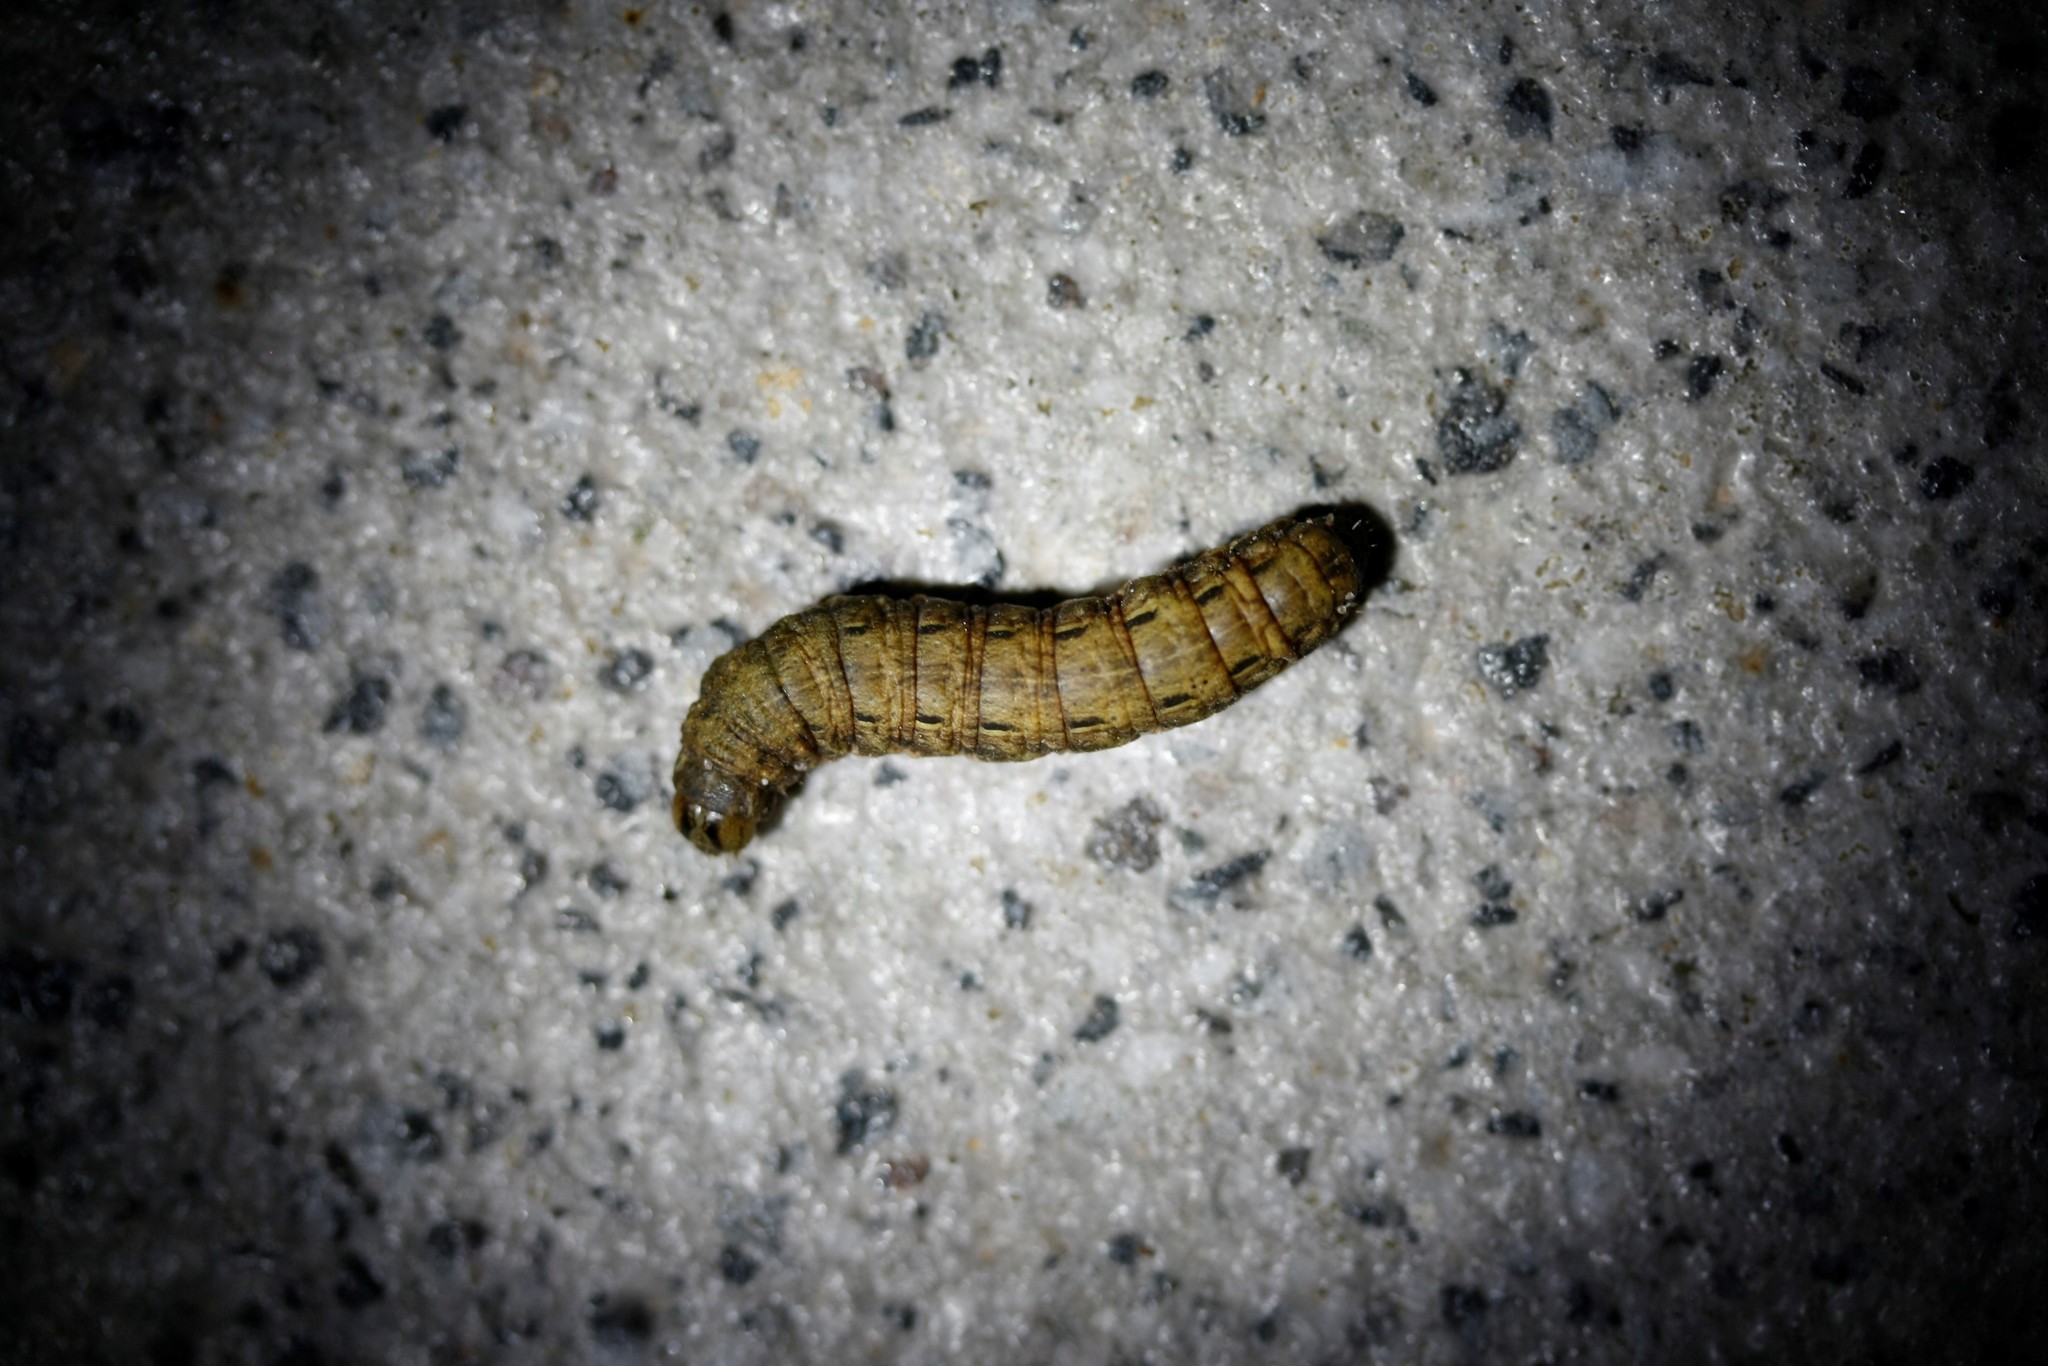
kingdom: Animalia
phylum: Arthropoda
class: Insecta
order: Lepidoptera
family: Noctuidae
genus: Noctua
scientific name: Noctua pronuba
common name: Large yellow underwing
